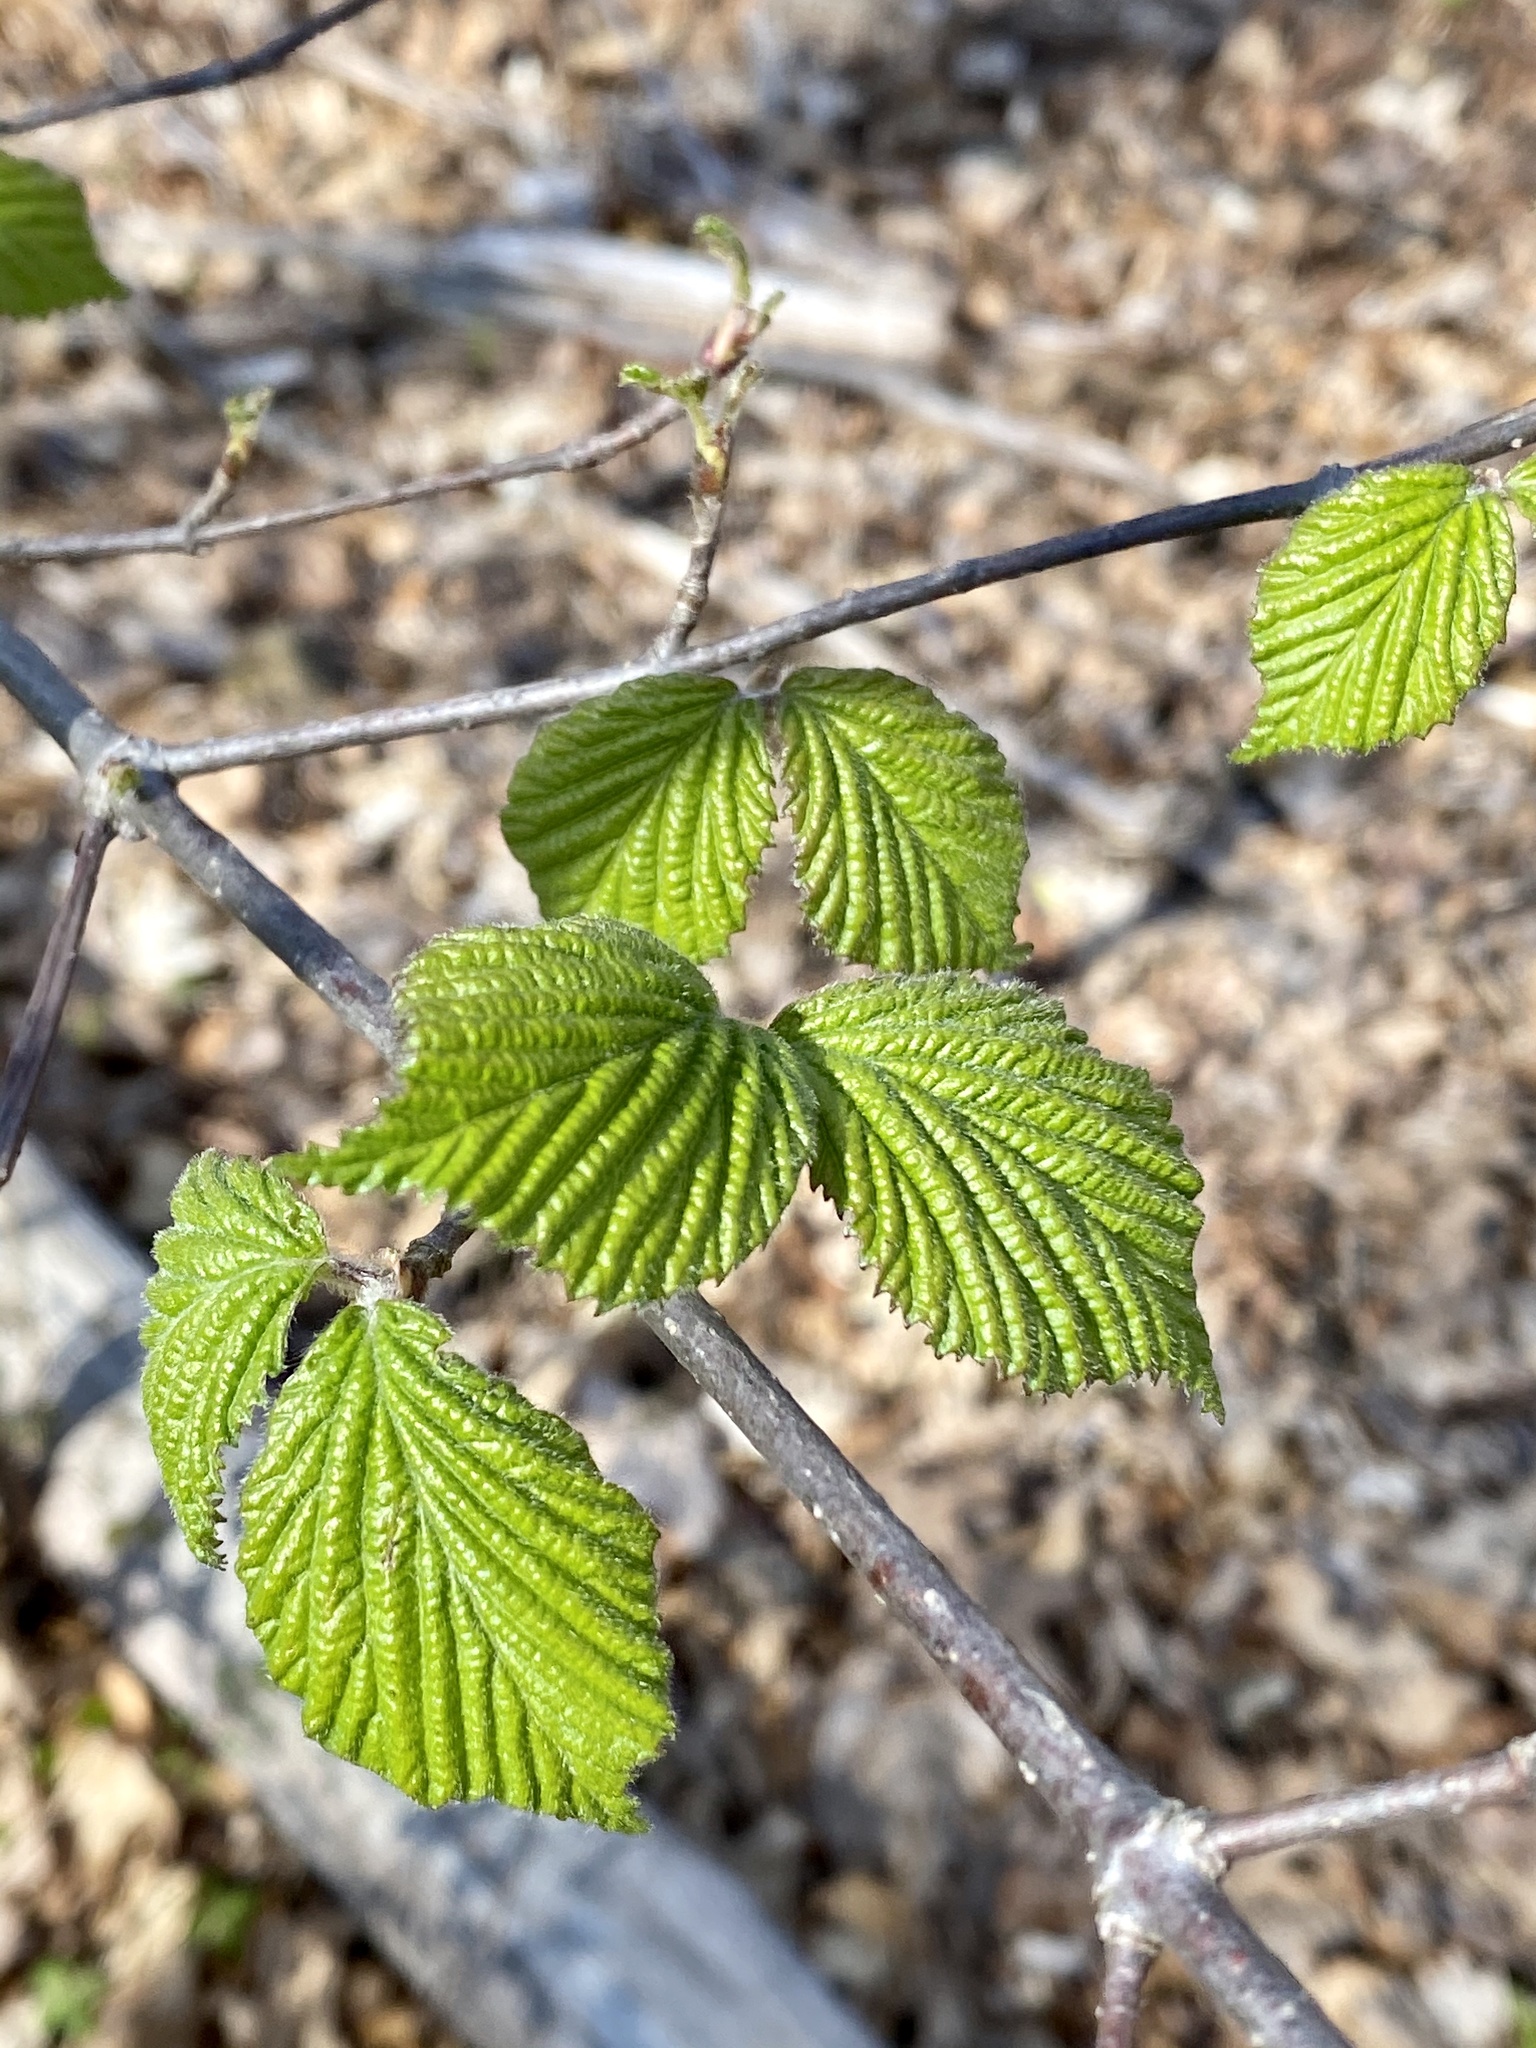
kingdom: Plantae
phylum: Tracheophyta
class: Magnoliopsida
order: Rosales
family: Rosaceae
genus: Rhodotypos
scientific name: Rhodotypos scandens
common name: Jetbead
